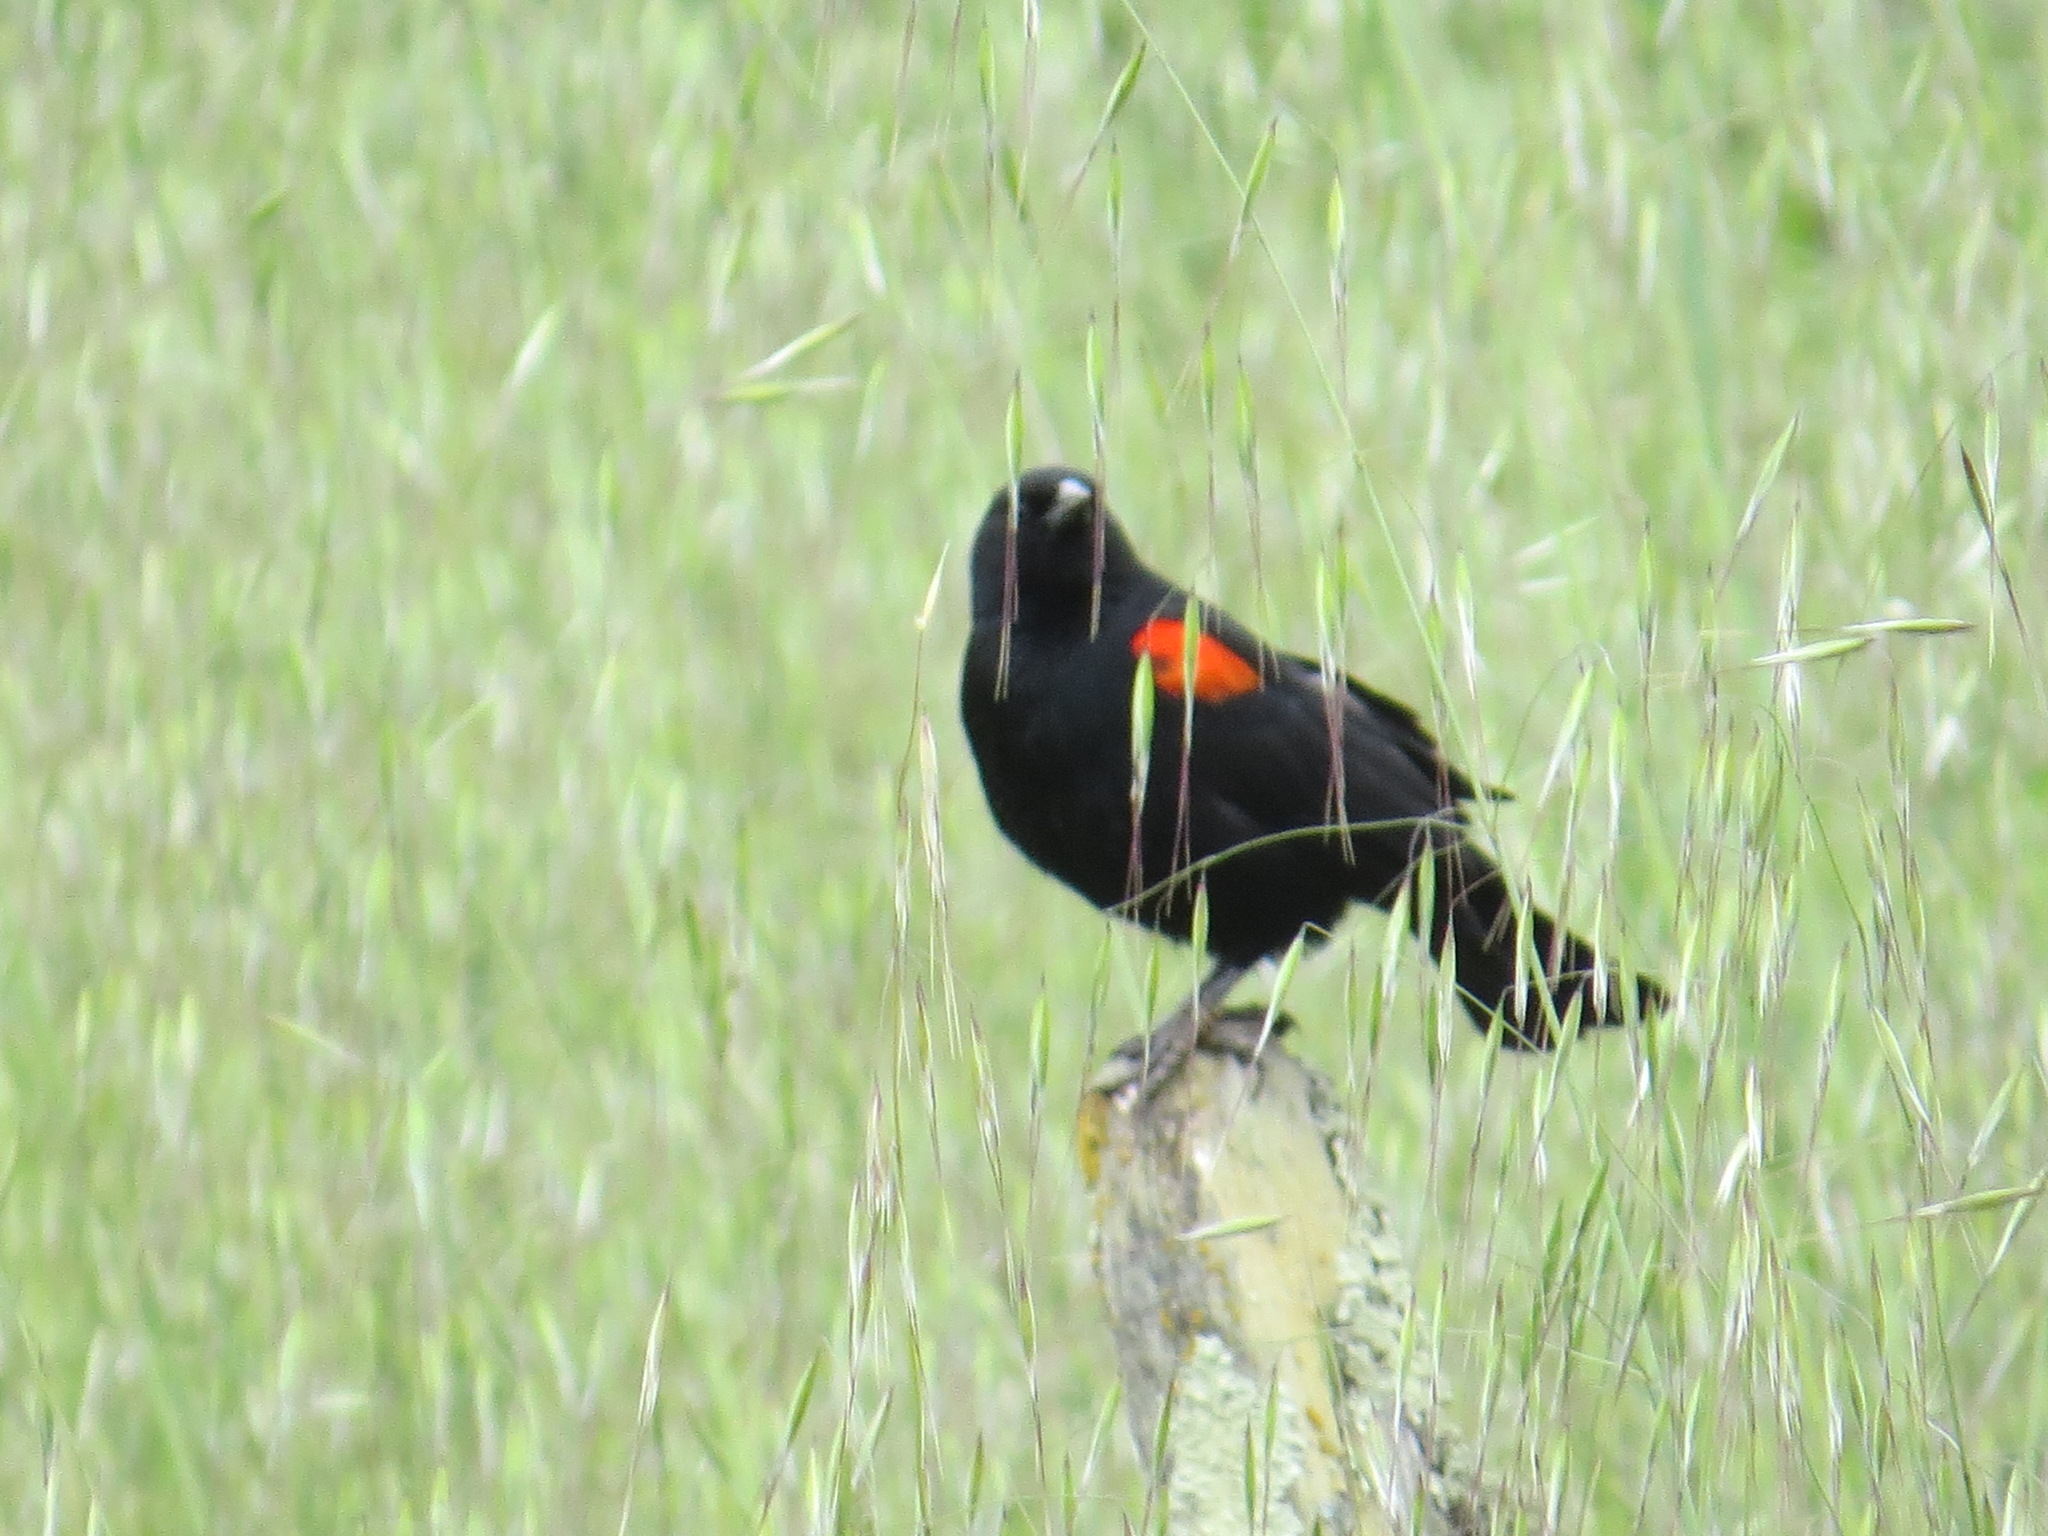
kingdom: Animalia
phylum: Chordata
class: Aves
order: Passeriformes
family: Icteridae
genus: Agelaius
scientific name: Agelaius phoeniceus
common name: Red-winged blackbird
